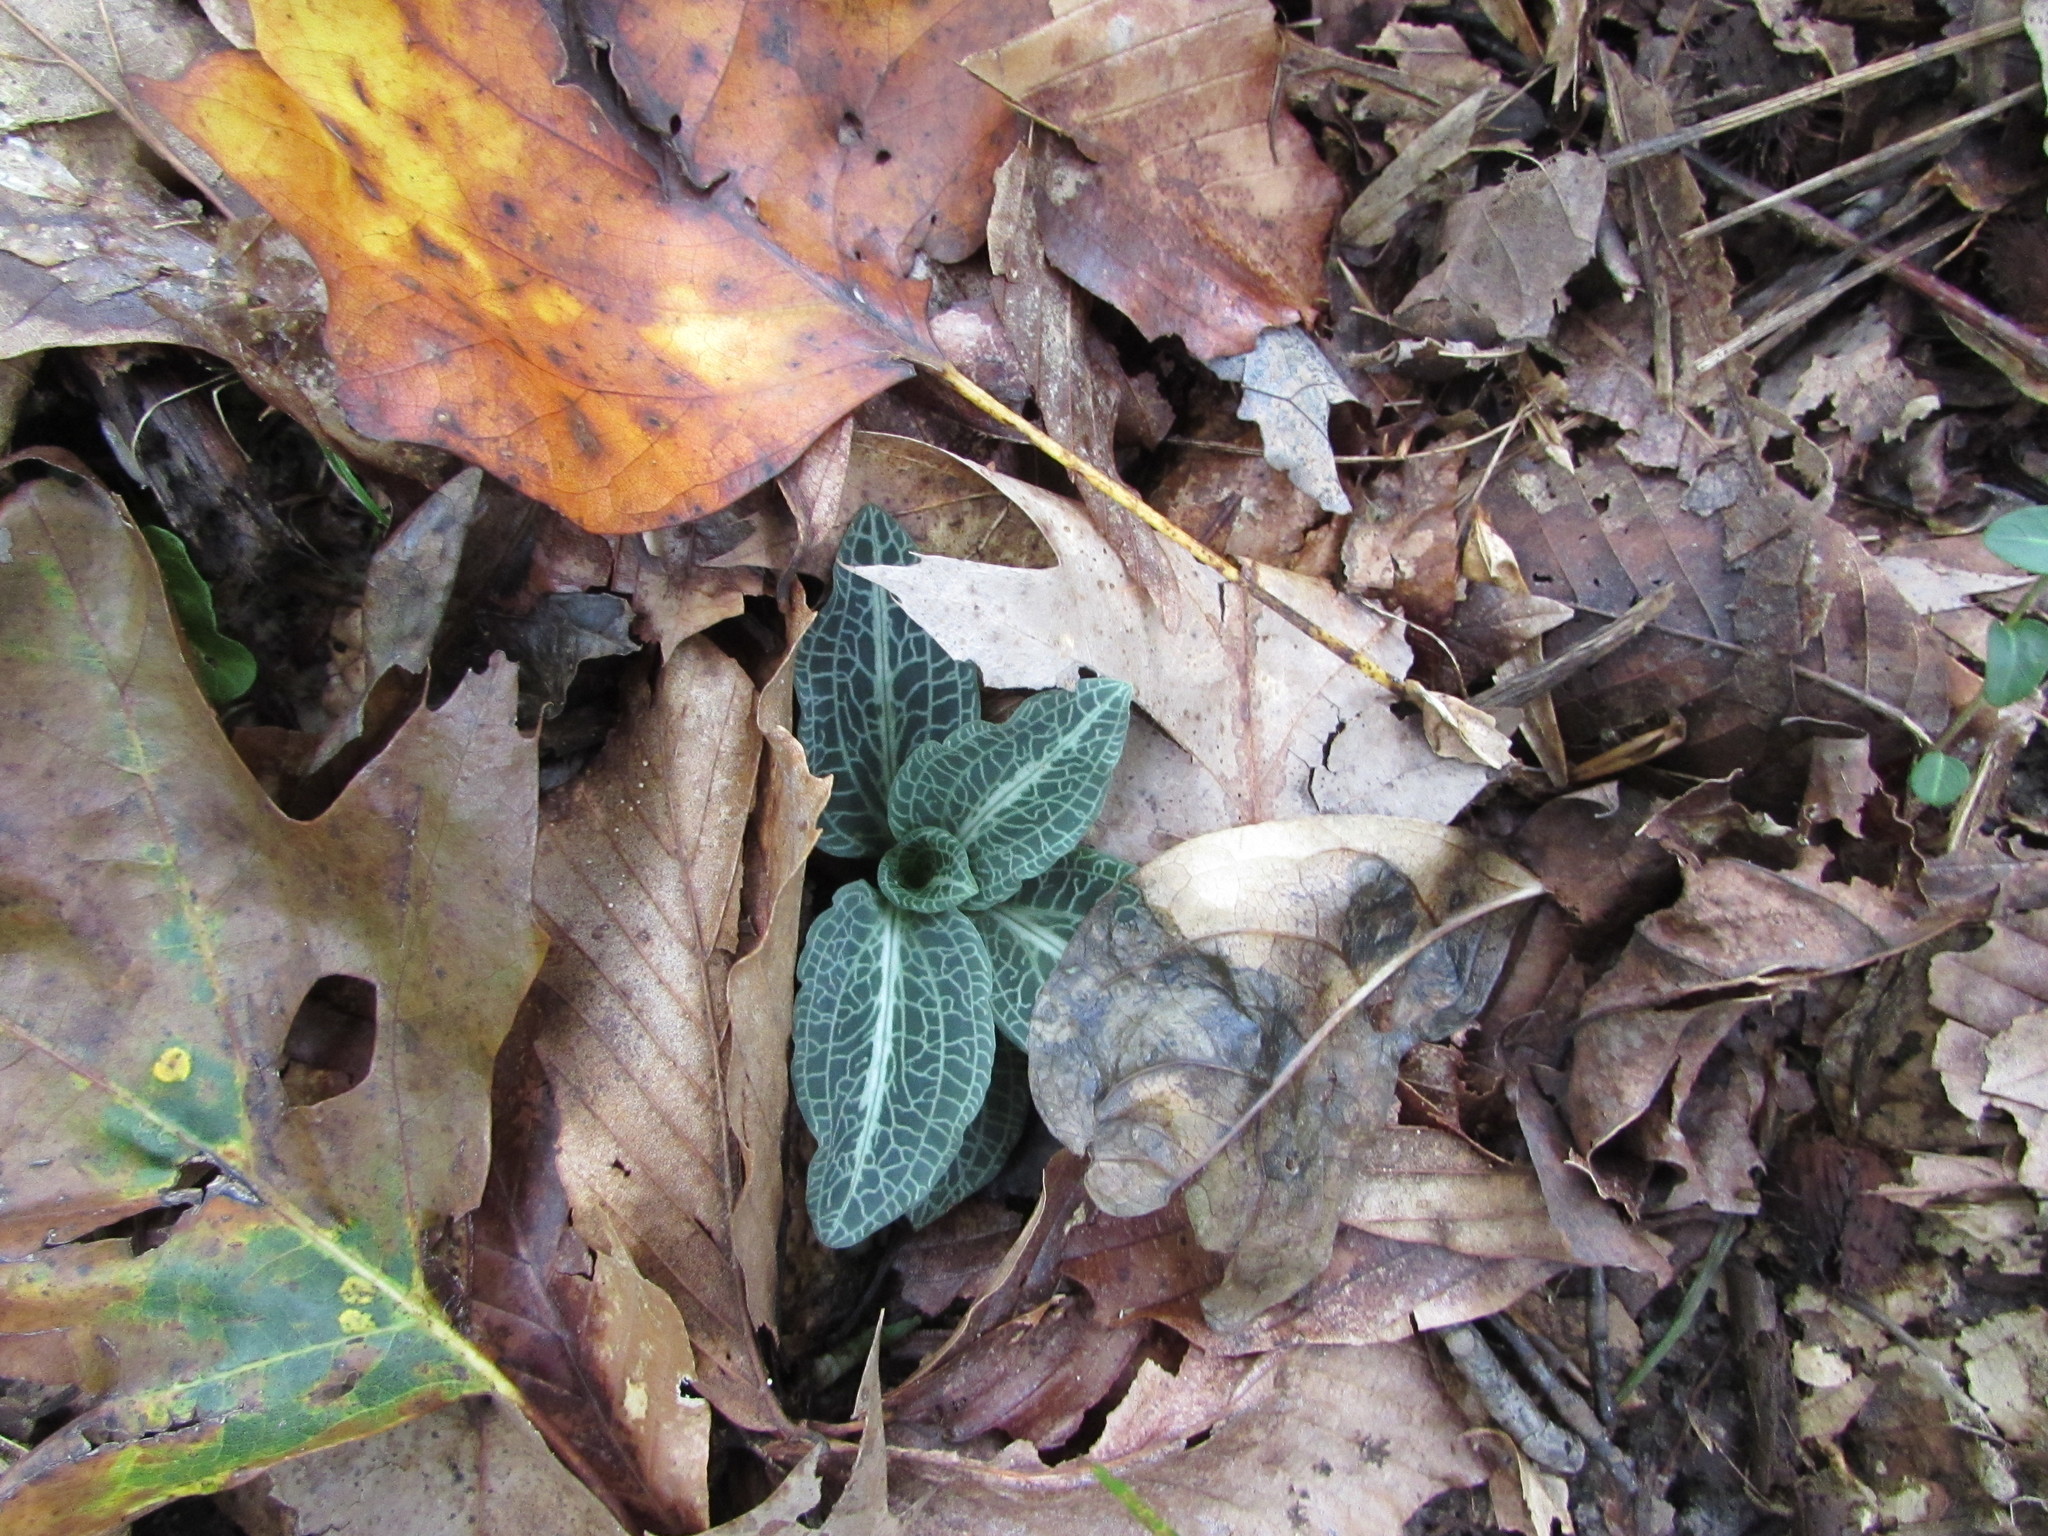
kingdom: Plantae
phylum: Tracheophyta
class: Liliopsida
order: Asparagales
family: Orchidaceae
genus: Goodyera
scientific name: Goodyera pubescens
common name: Downy rattlesnake-plantain
